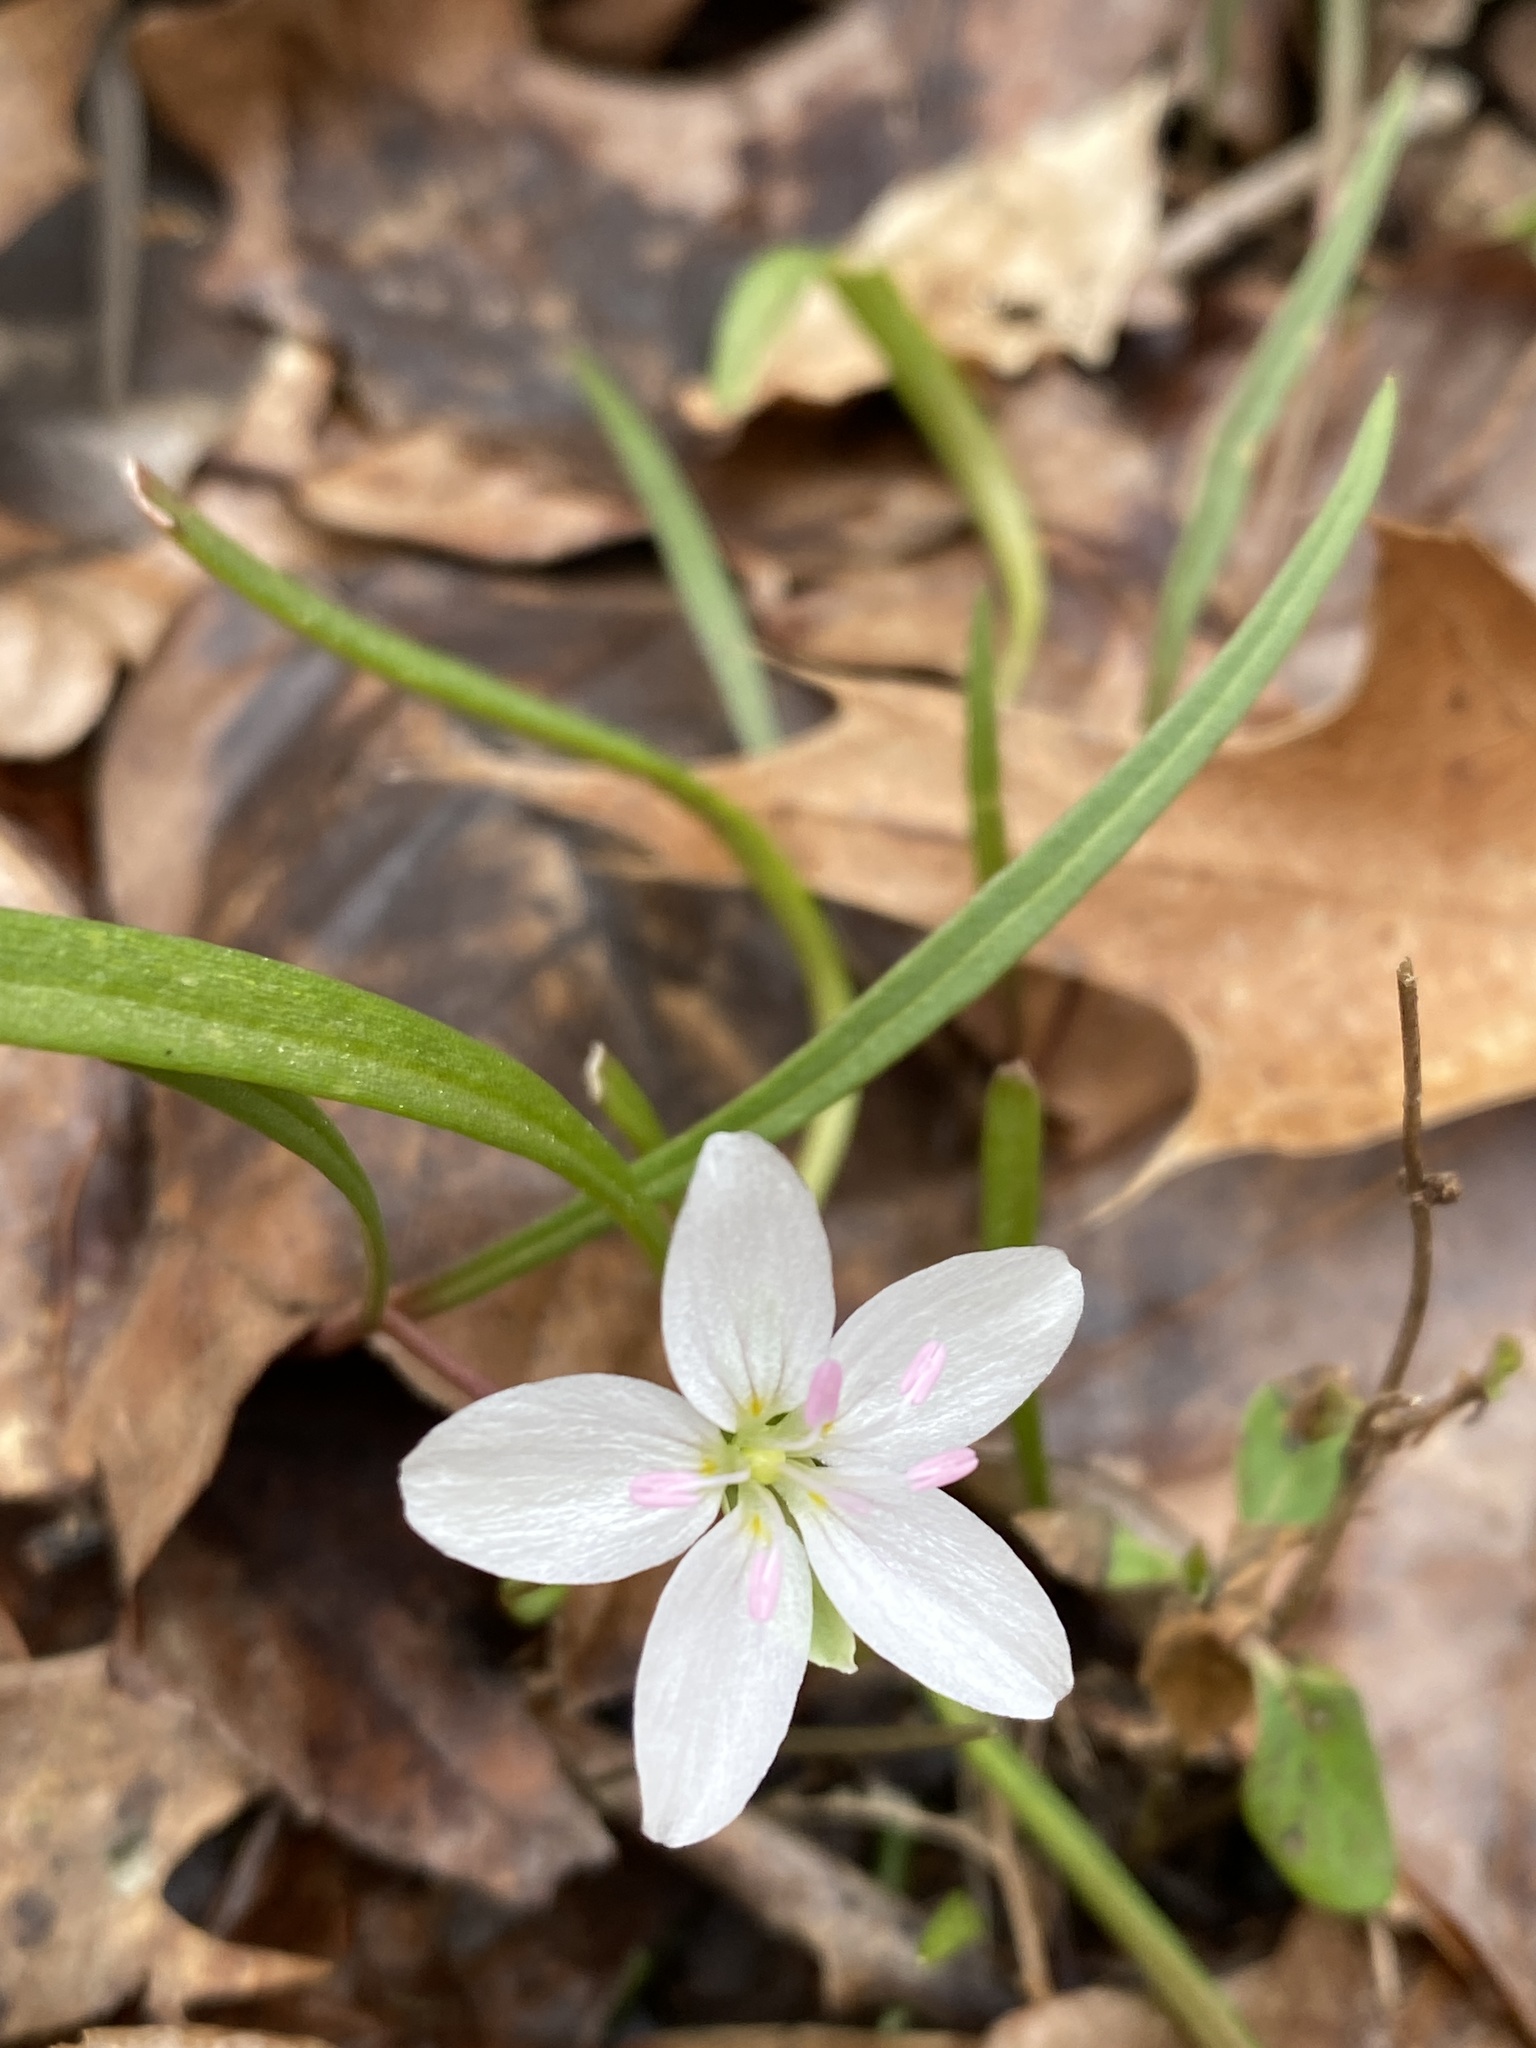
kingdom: Plantae
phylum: Tracheophyta
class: Magnoliopsida
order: Caryophyllales
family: Montiaceae
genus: Claytonia
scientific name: Claytonia virginica
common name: Virginia springbeauty
